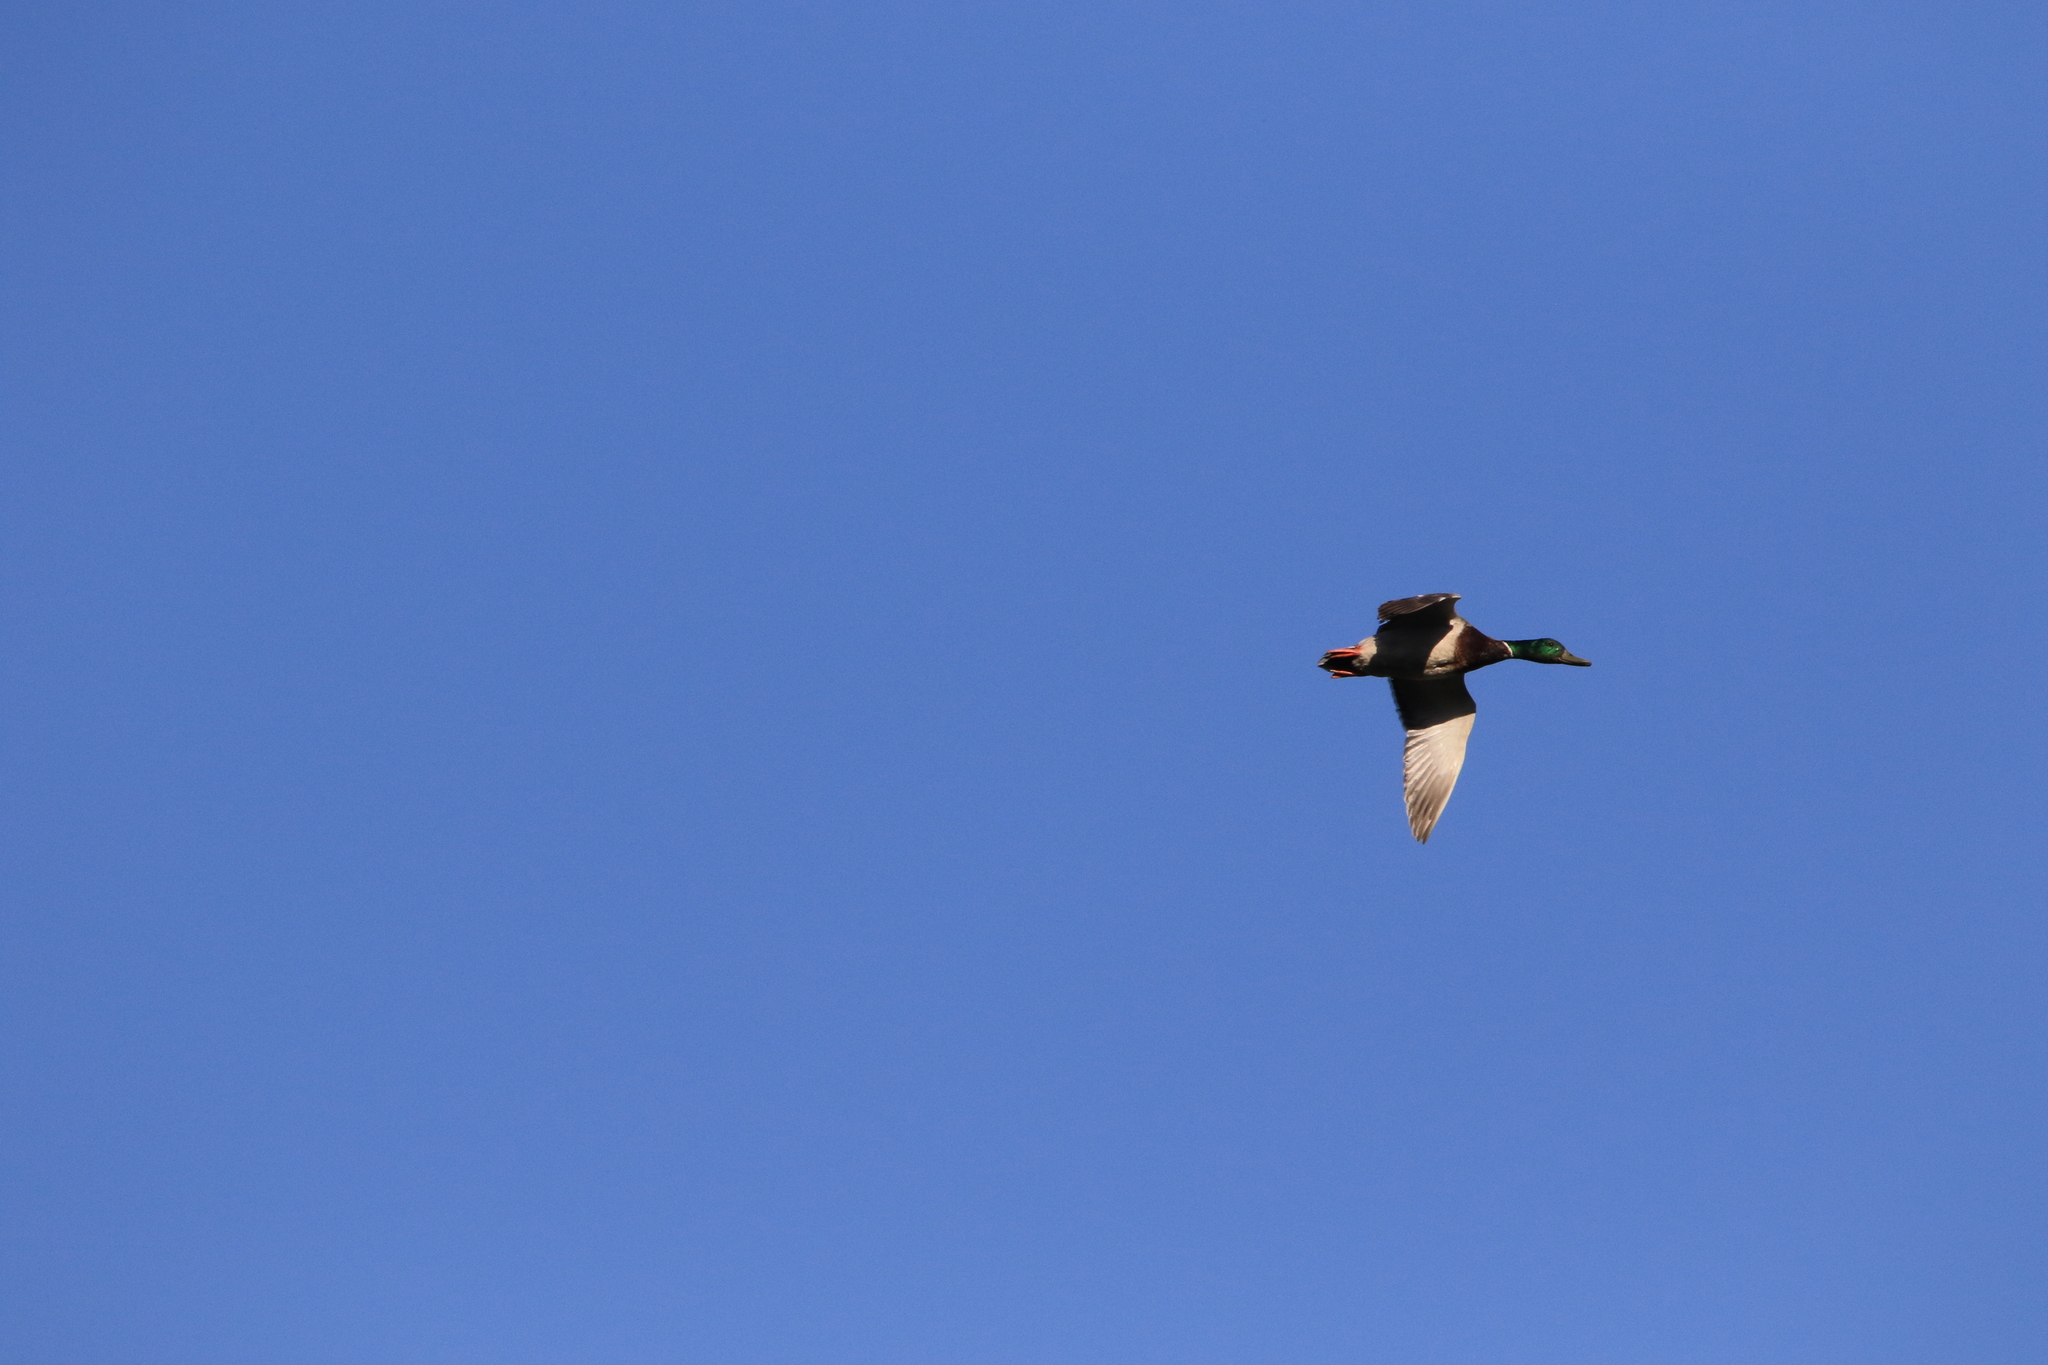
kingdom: Animalia
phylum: Chordata
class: Aves
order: Anseriformes
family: Anatidae
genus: Anas
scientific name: Anas platyrhynchos
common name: Mallard
